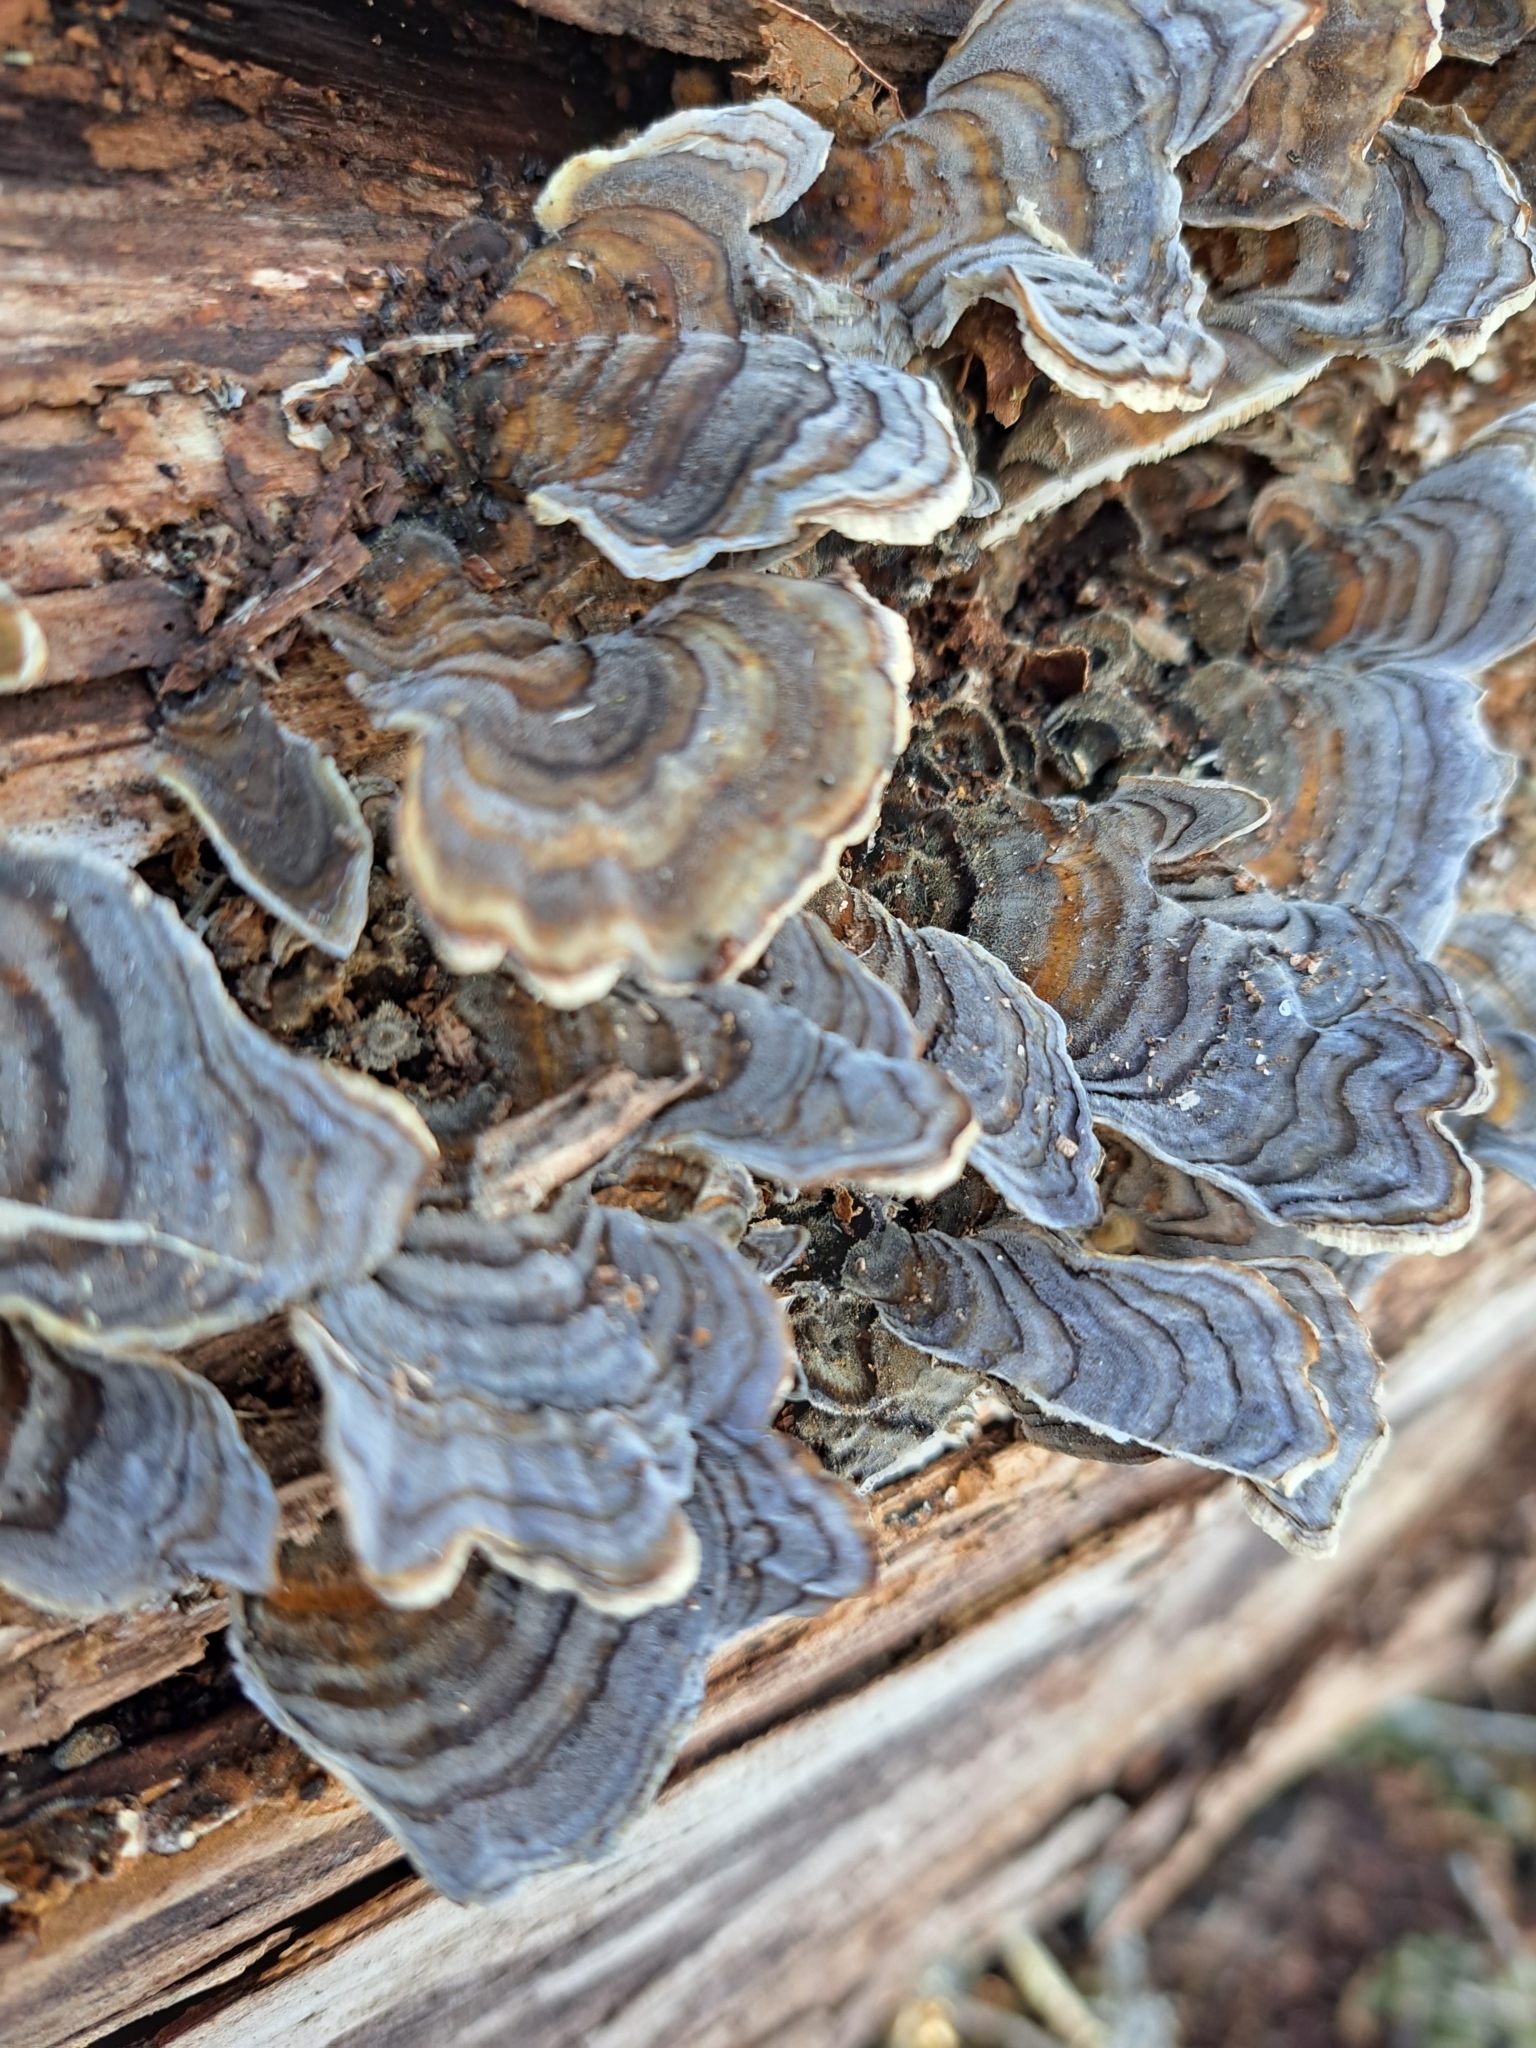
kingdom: Fungi
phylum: Basidiomycota
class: Agaricomycetes
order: Polyporales
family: Polyporaceae
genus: Trametes
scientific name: Trametes versicolor
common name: Turkeytail
